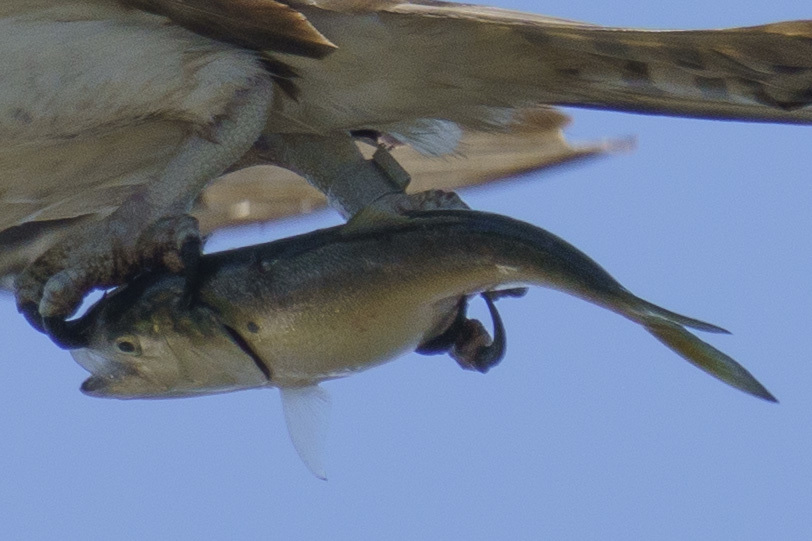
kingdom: Animalia
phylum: Chordata
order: Clupeiformes
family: Clupeidae
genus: Brevoortia
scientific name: Brevoortia tyrannus
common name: Atlantic menhaden
